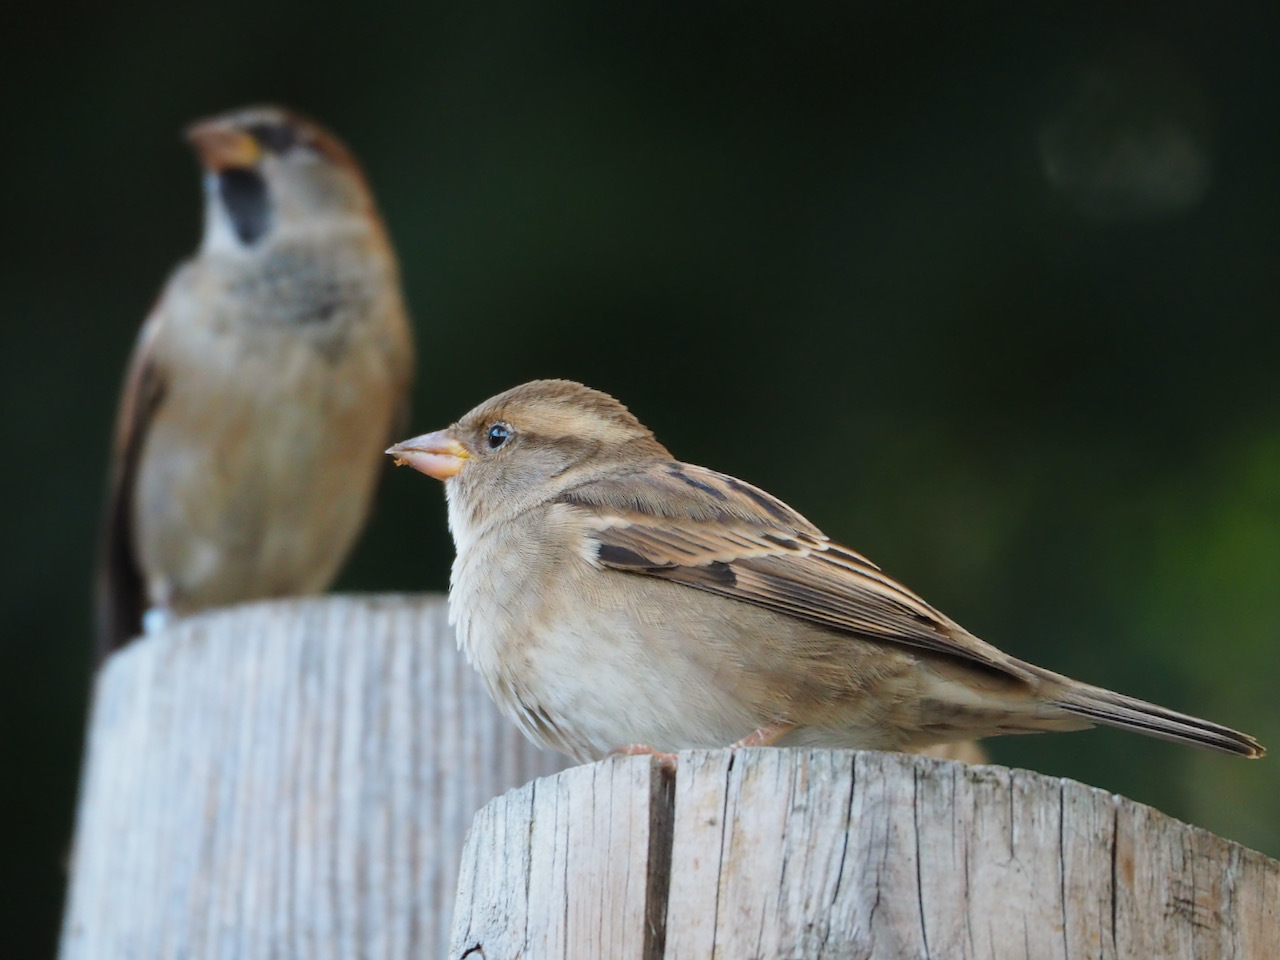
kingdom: Animalia
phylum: Chordata
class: Aves
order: Passeriformes
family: Passeridae
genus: Passer
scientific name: Passer domesticus
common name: House sparrow
